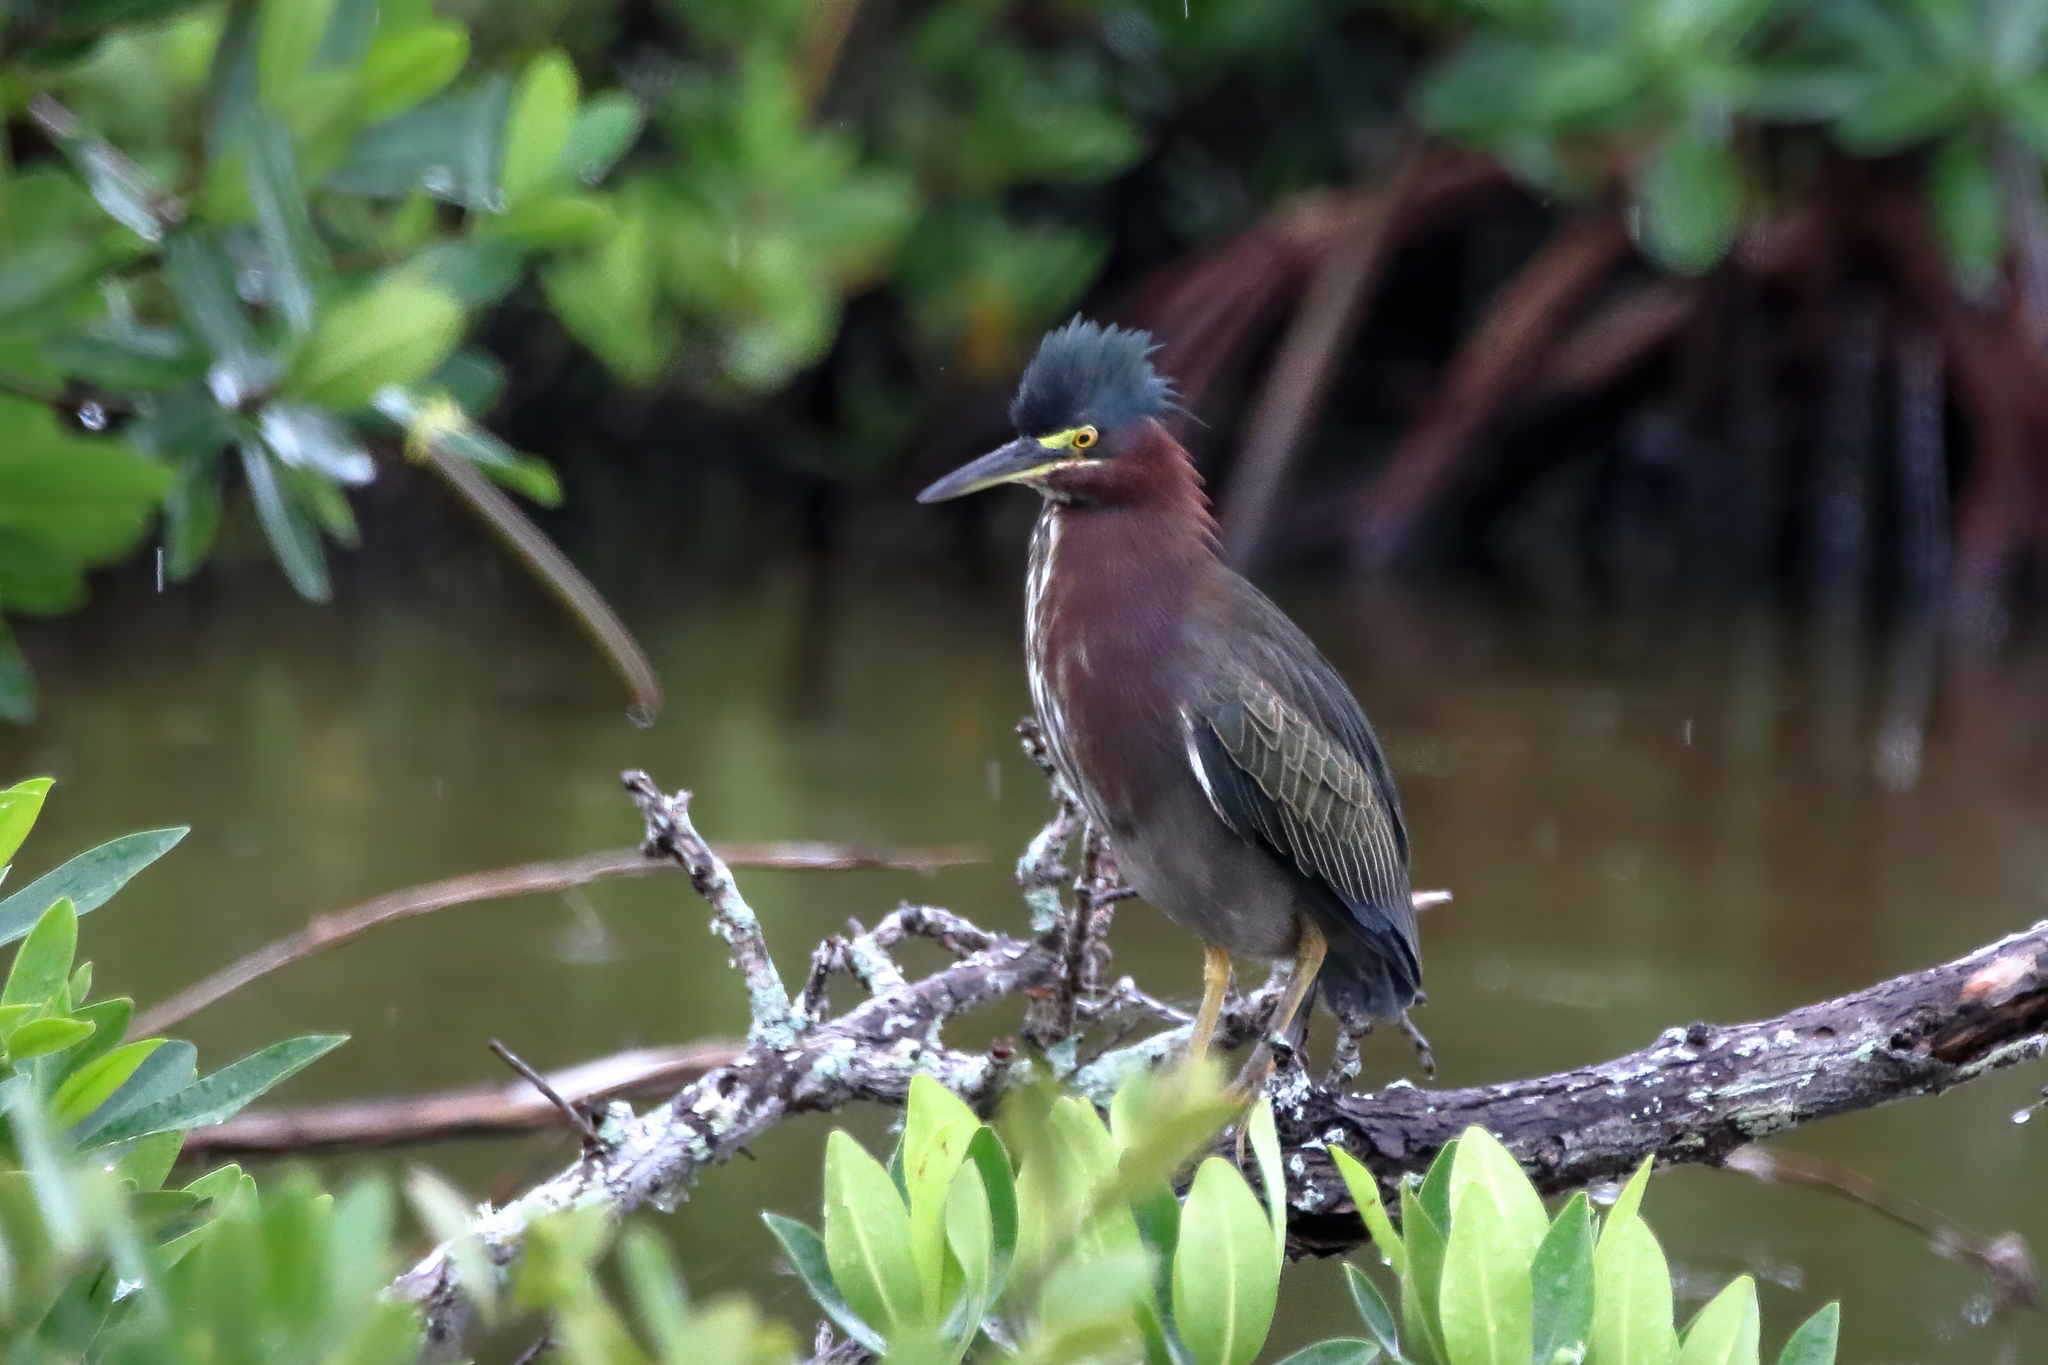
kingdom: Animalia
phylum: Chordata
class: Aves
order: Pelecaniformes
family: Ardeidae
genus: Butorides
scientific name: Butorides virescens
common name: Green heron
